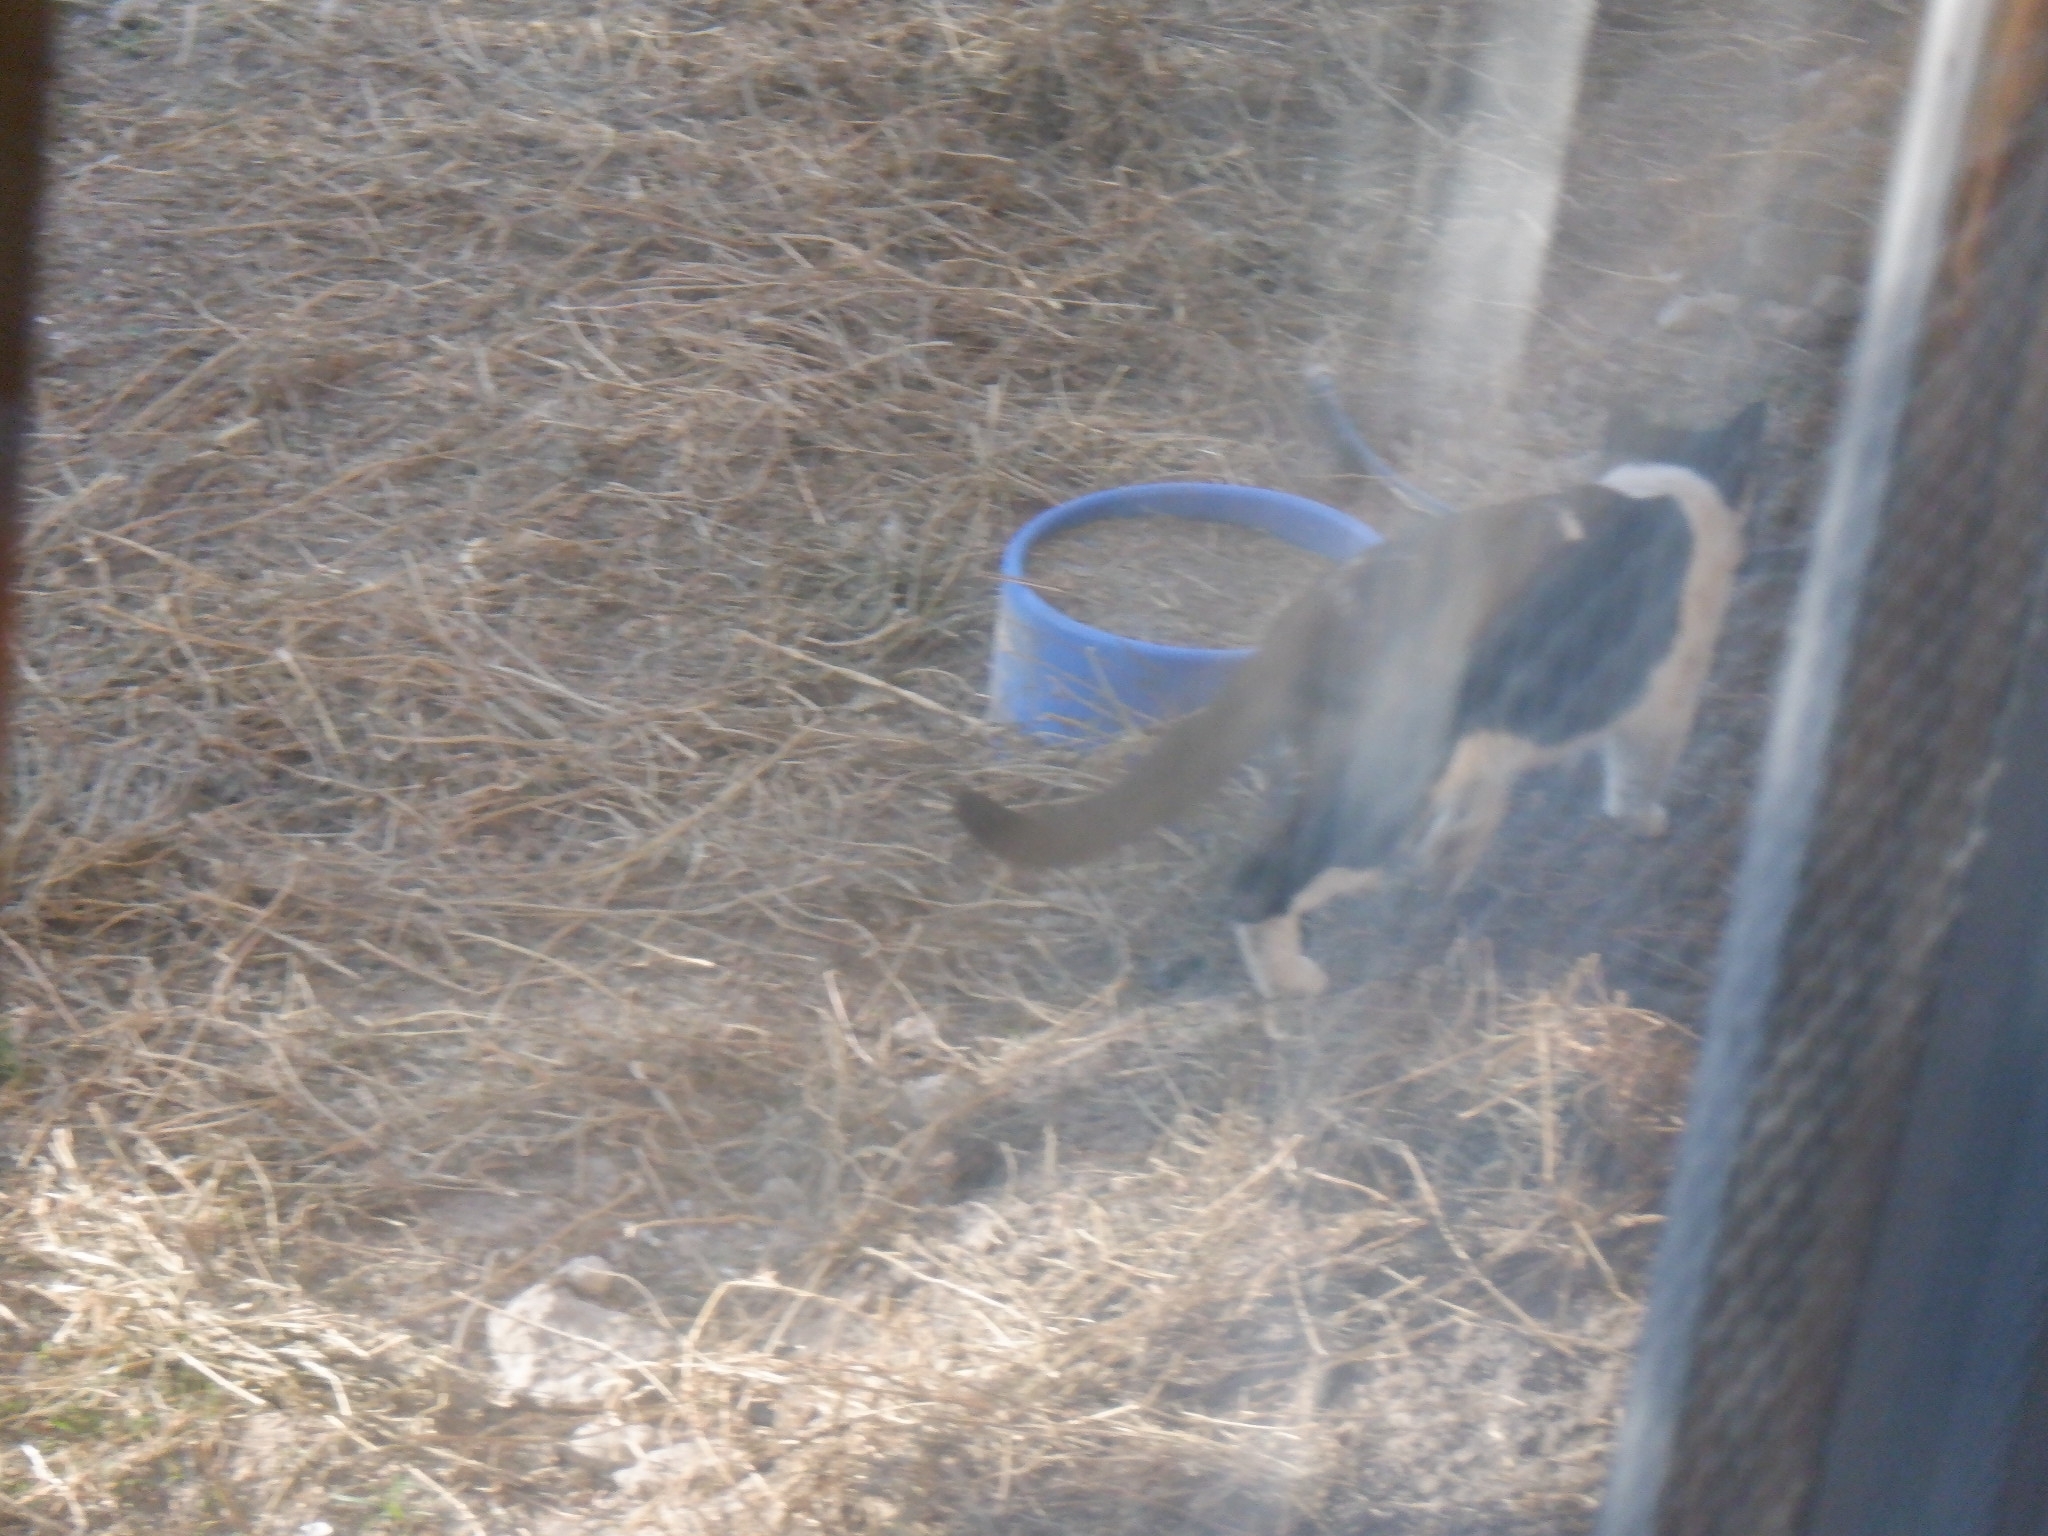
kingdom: Animalia
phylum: Chordata
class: Mammalia
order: Carnivora
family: Felidae
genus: Felis
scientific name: Felis catus
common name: Domestic cat
